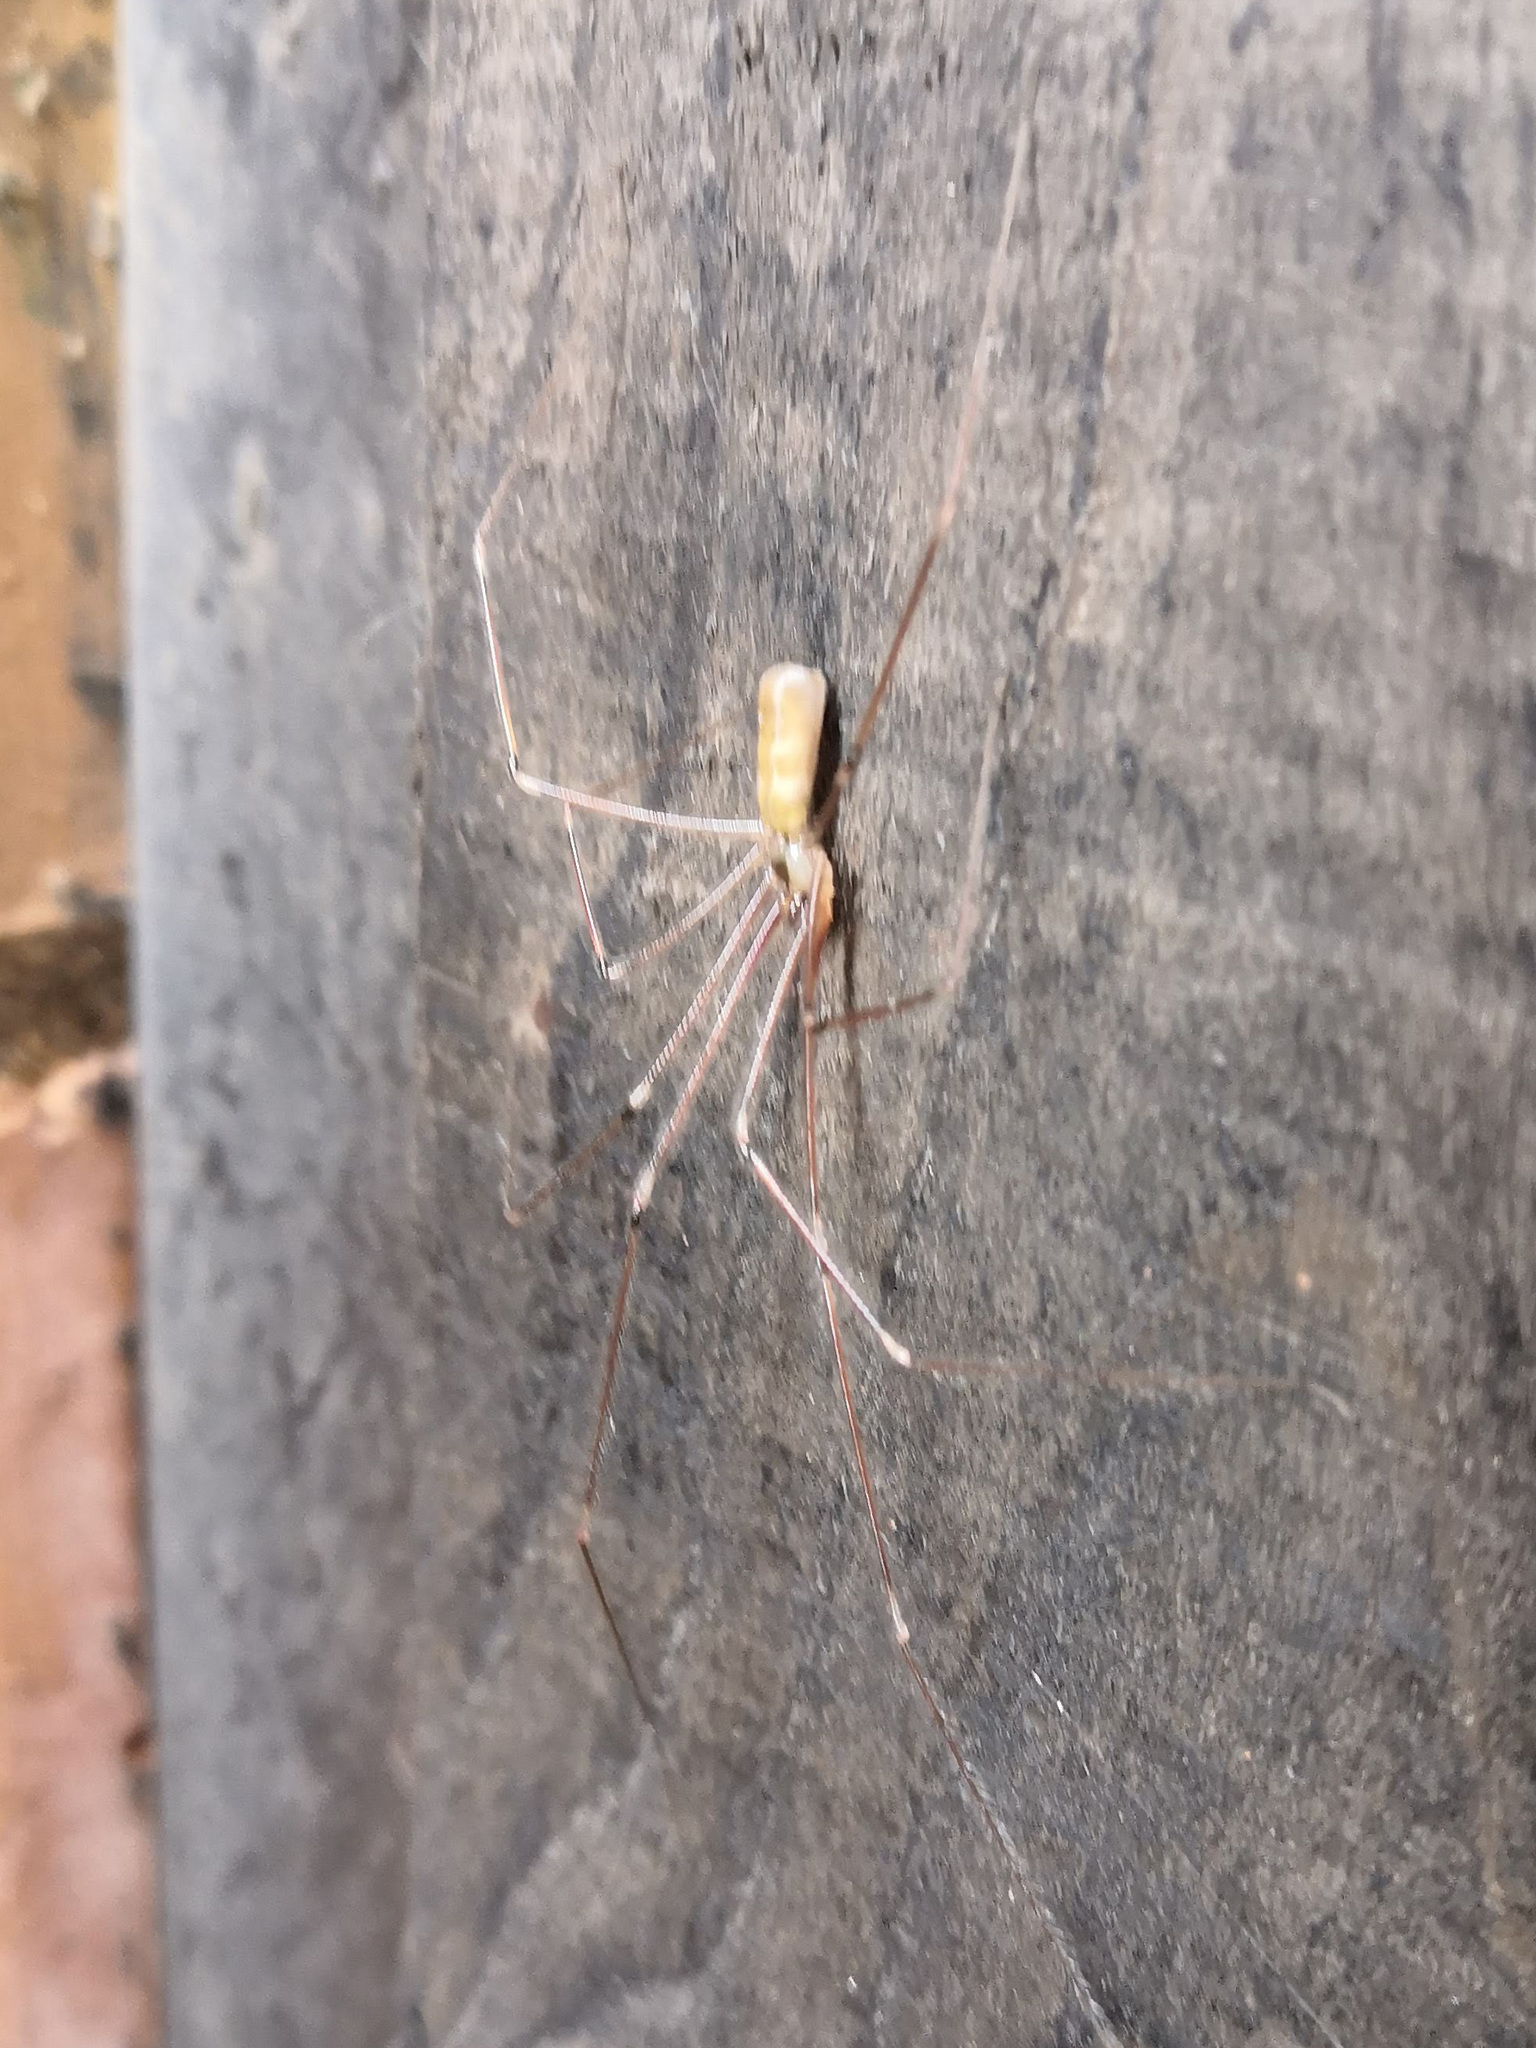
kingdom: Animalia
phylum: Arthropoda
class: Arachnida
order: Araneae
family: Pholcidae
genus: Pholcus
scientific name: Pholcus phalangioides
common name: Longbodied cellar spider
